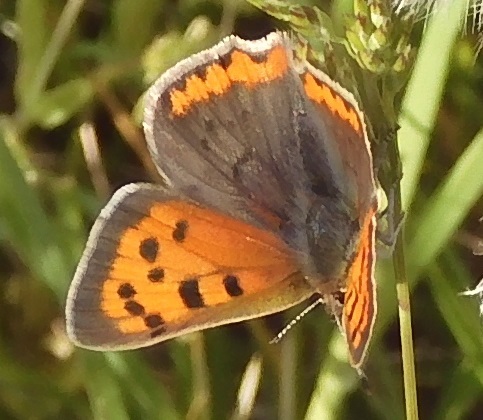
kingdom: Animalia
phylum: Arthropoda
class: Insecta
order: Lepidoptera
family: Lycaenidae
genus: Lycaena
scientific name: Lycaena phlaeas
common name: Small copper
